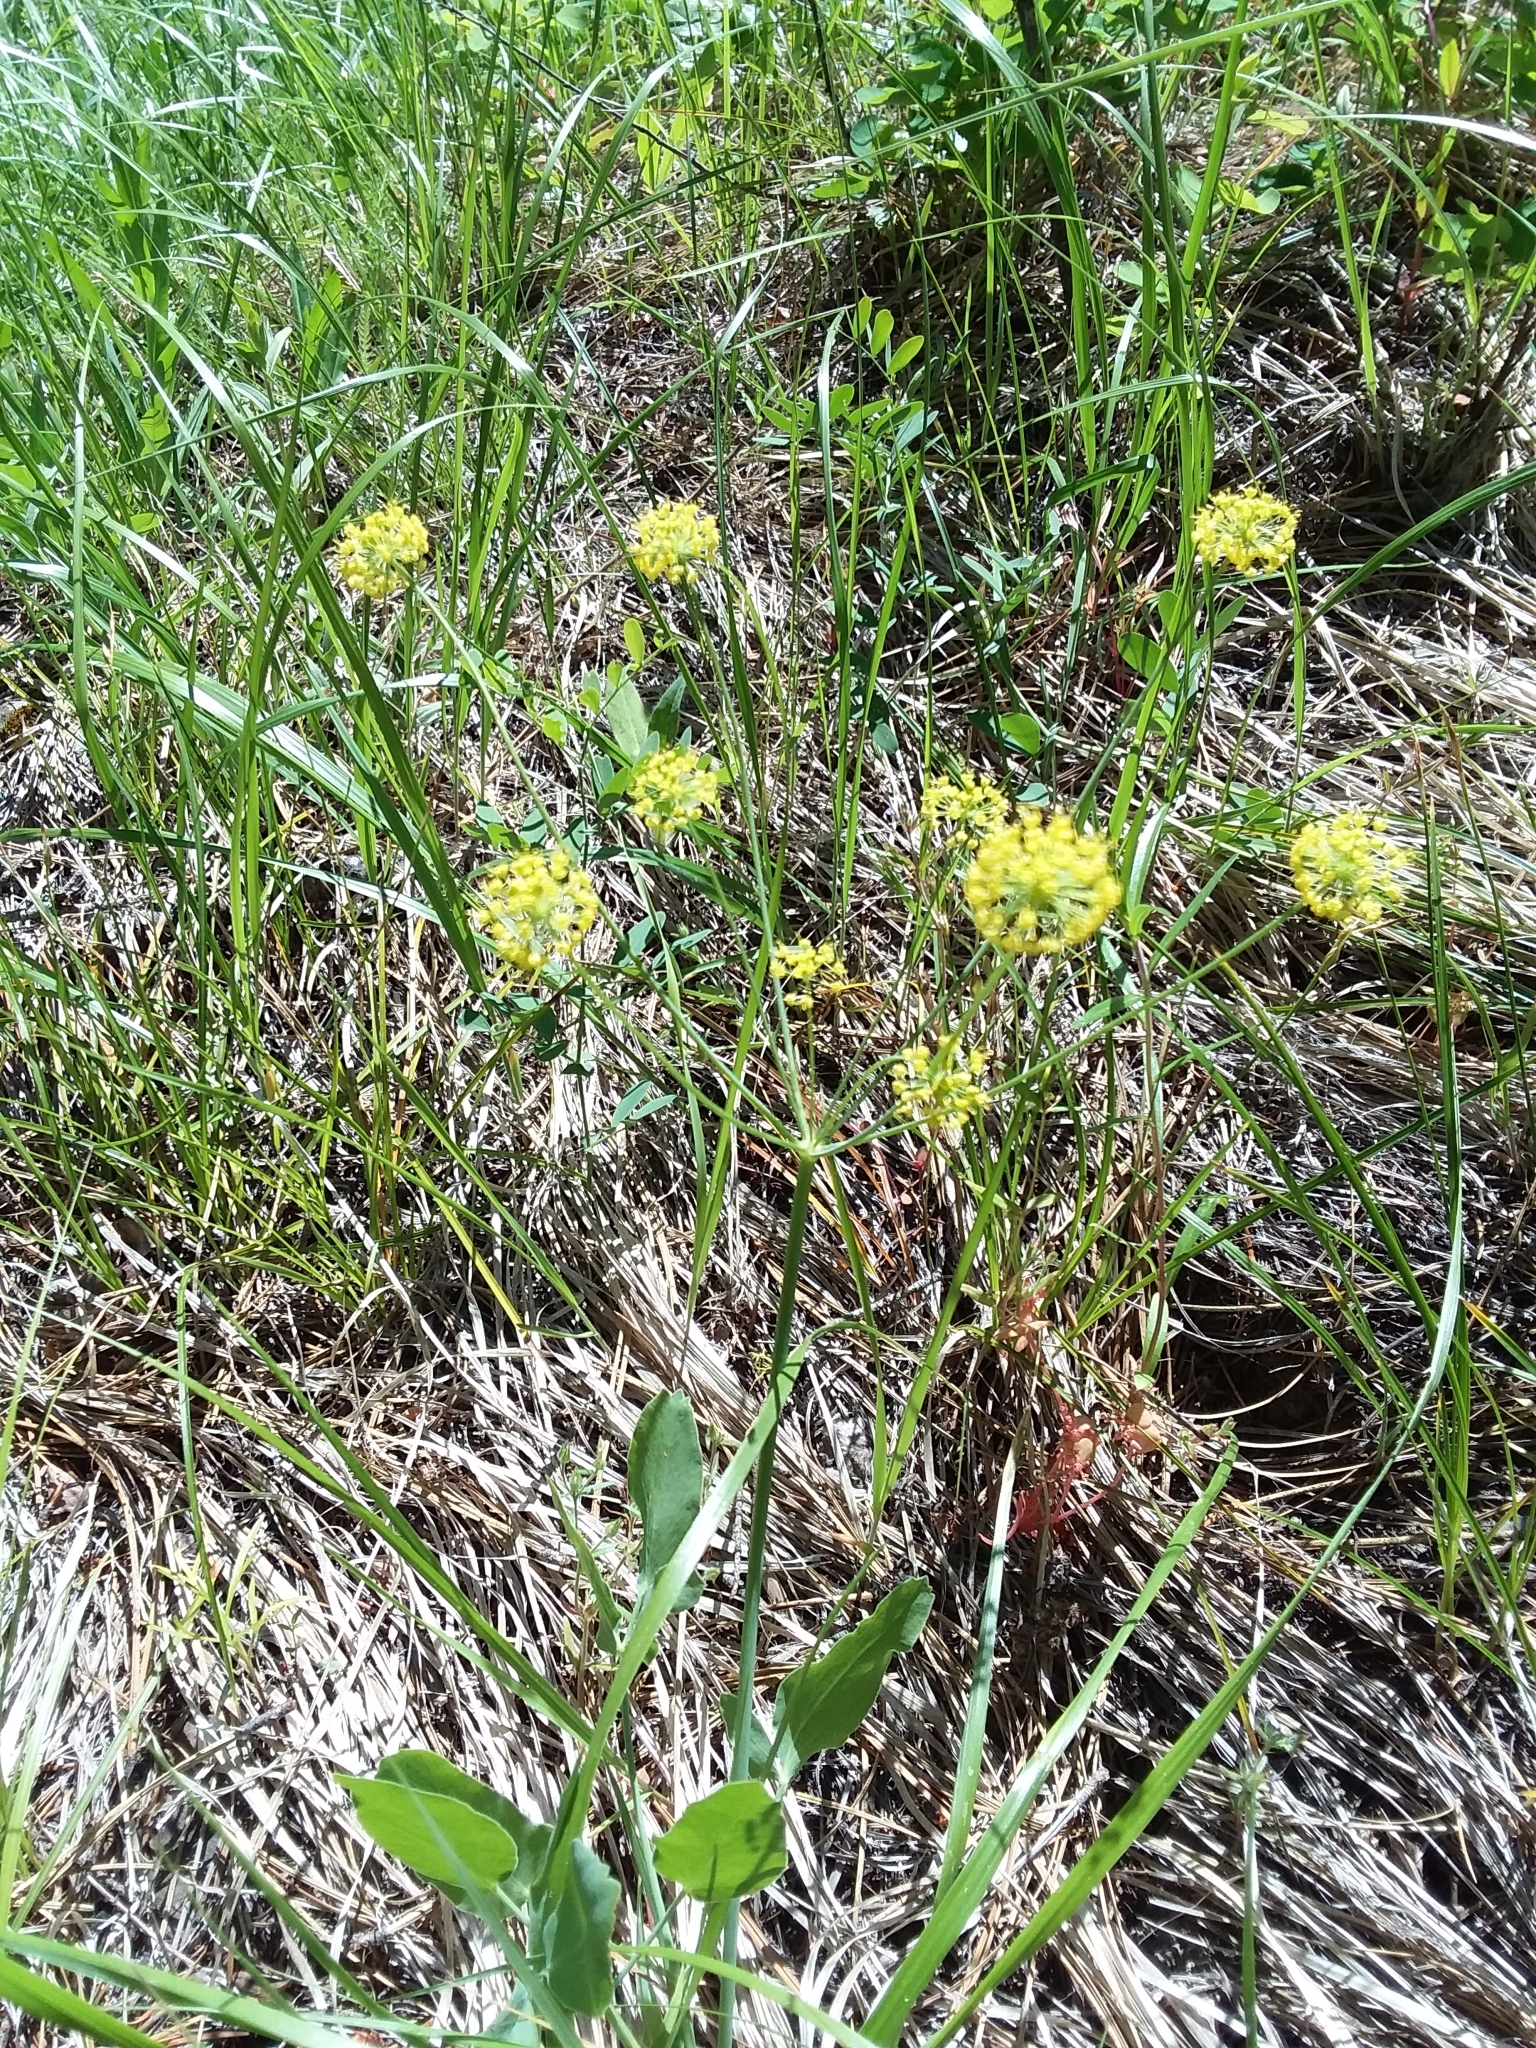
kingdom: Plantae
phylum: Tracheophyta
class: Magnoliopsida
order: Apiales
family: Apiaceae
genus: Lomatium
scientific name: Lomatium nudicaule
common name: Pestle lomatium
